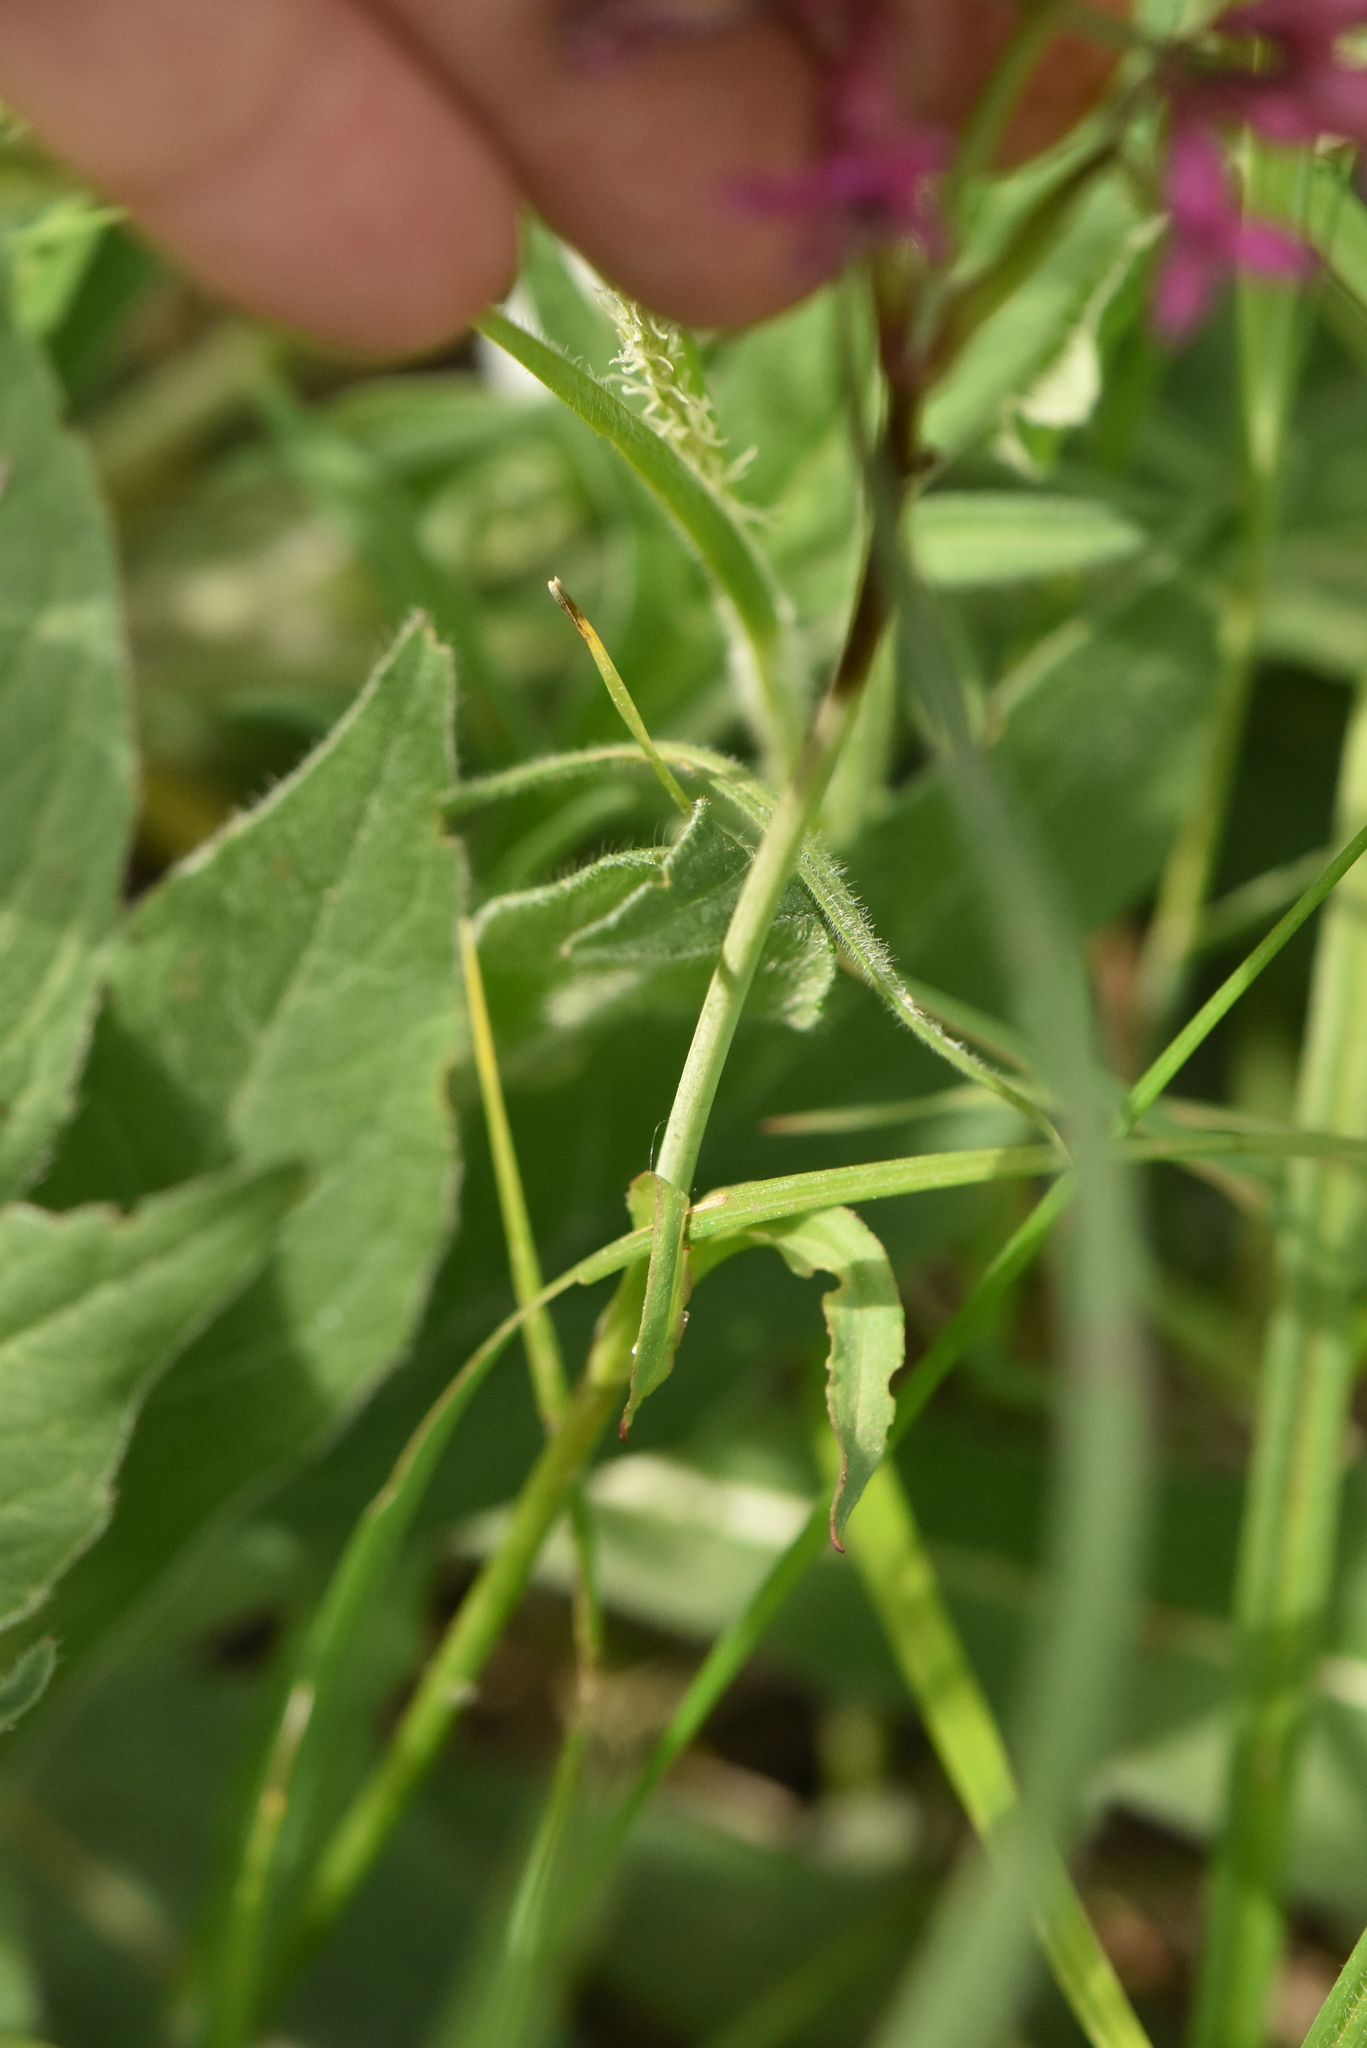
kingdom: Plantae
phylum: Tracheophyta
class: Magnoliopsida
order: Caryophyllales
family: Caryophyllaceae
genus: Viscaria
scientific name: Viscaria vulgaris
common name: Clammy campion
